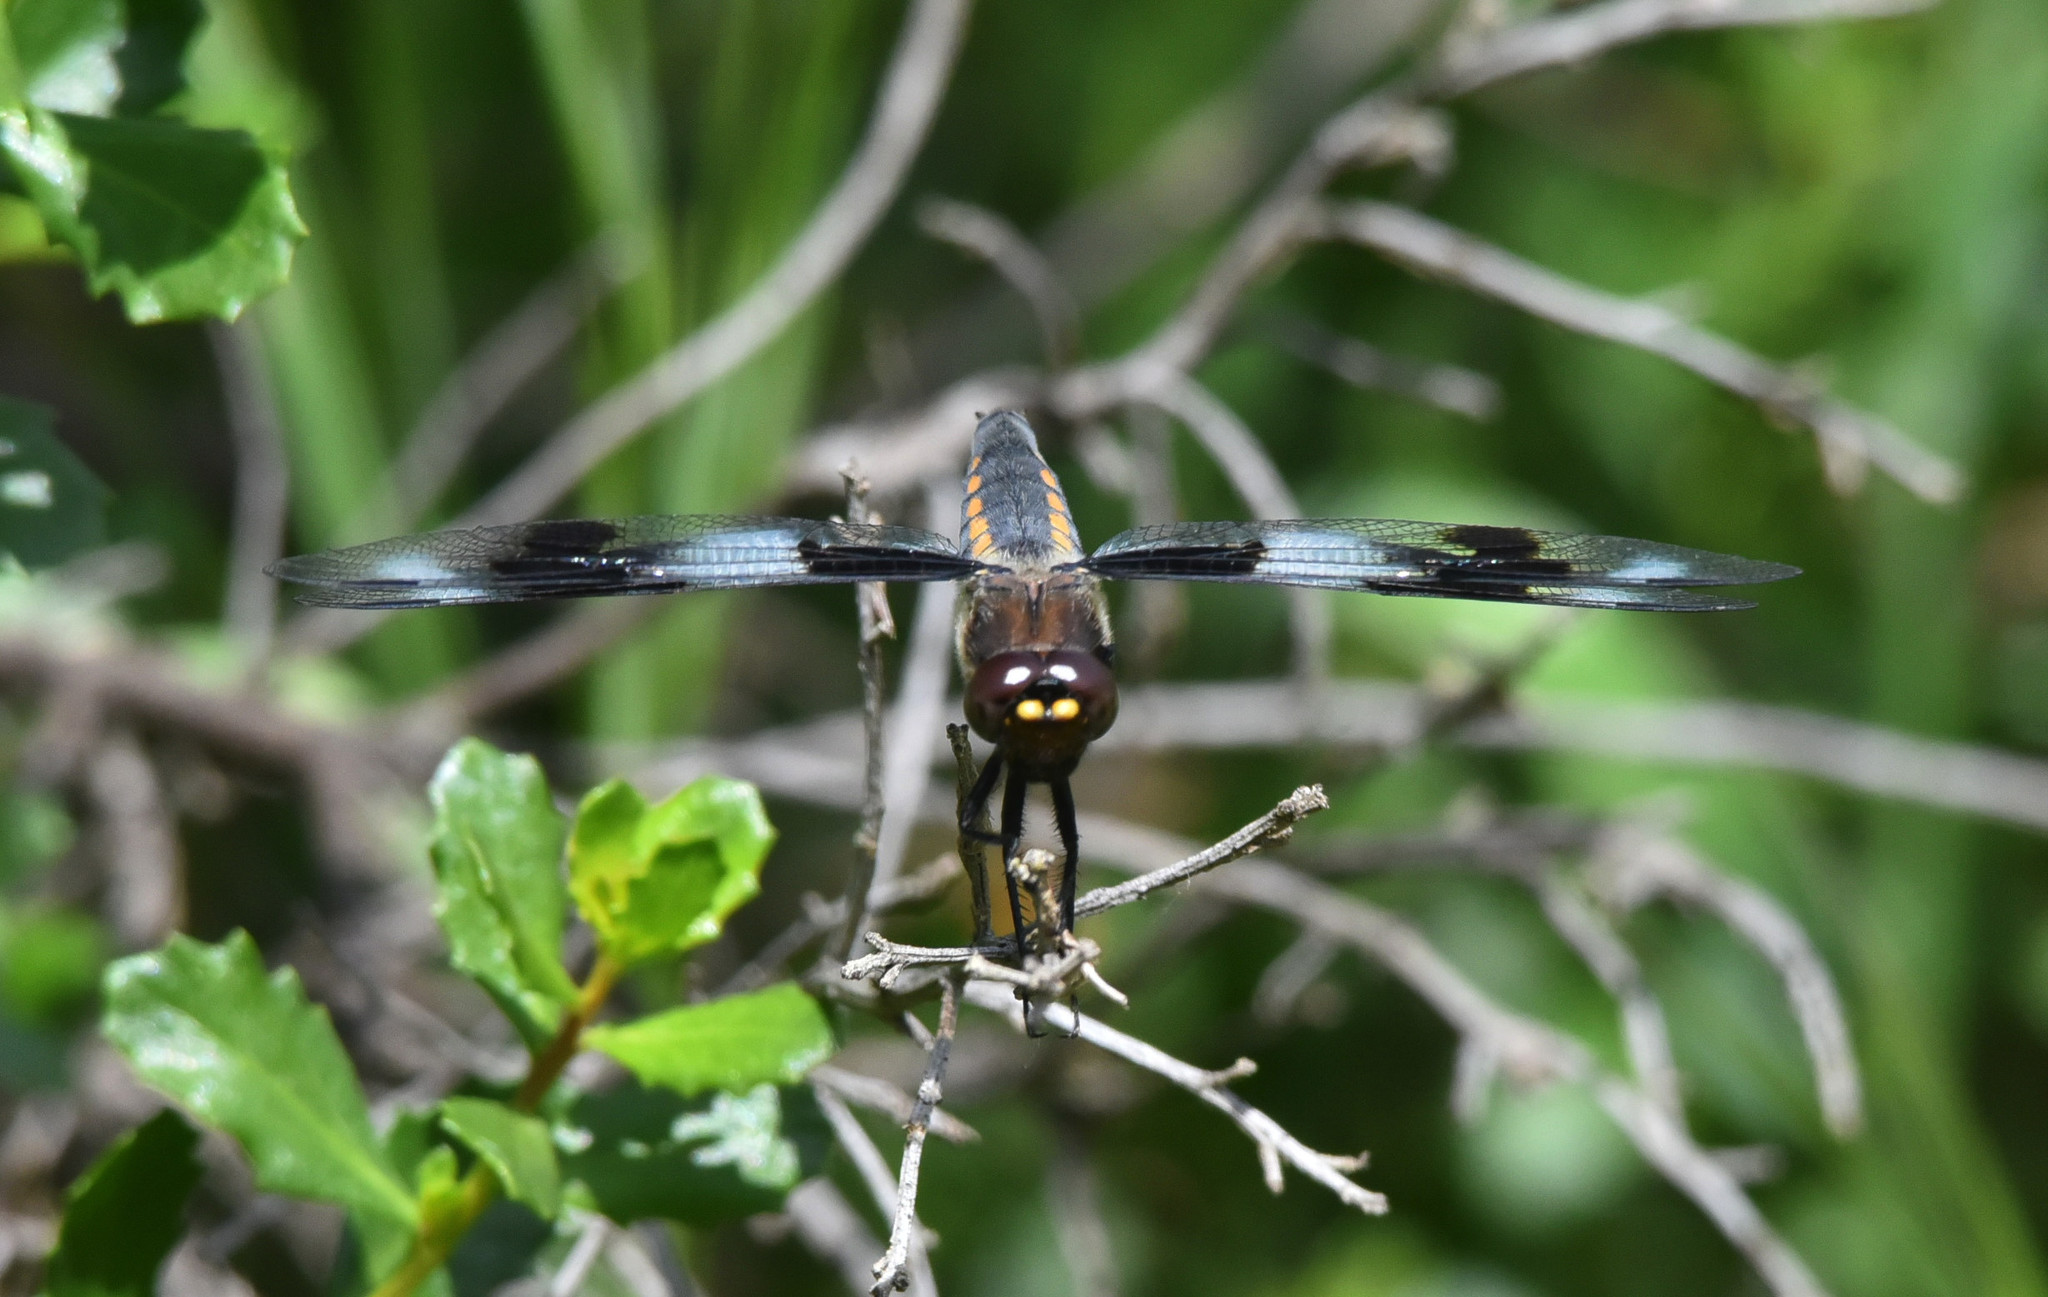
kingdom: Animalia
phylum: Arthropoda
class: Insecta
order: Odonata
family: Libellulidae
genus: Libellula
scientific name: Libellula forensis
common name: Eight-spotted skimmer
